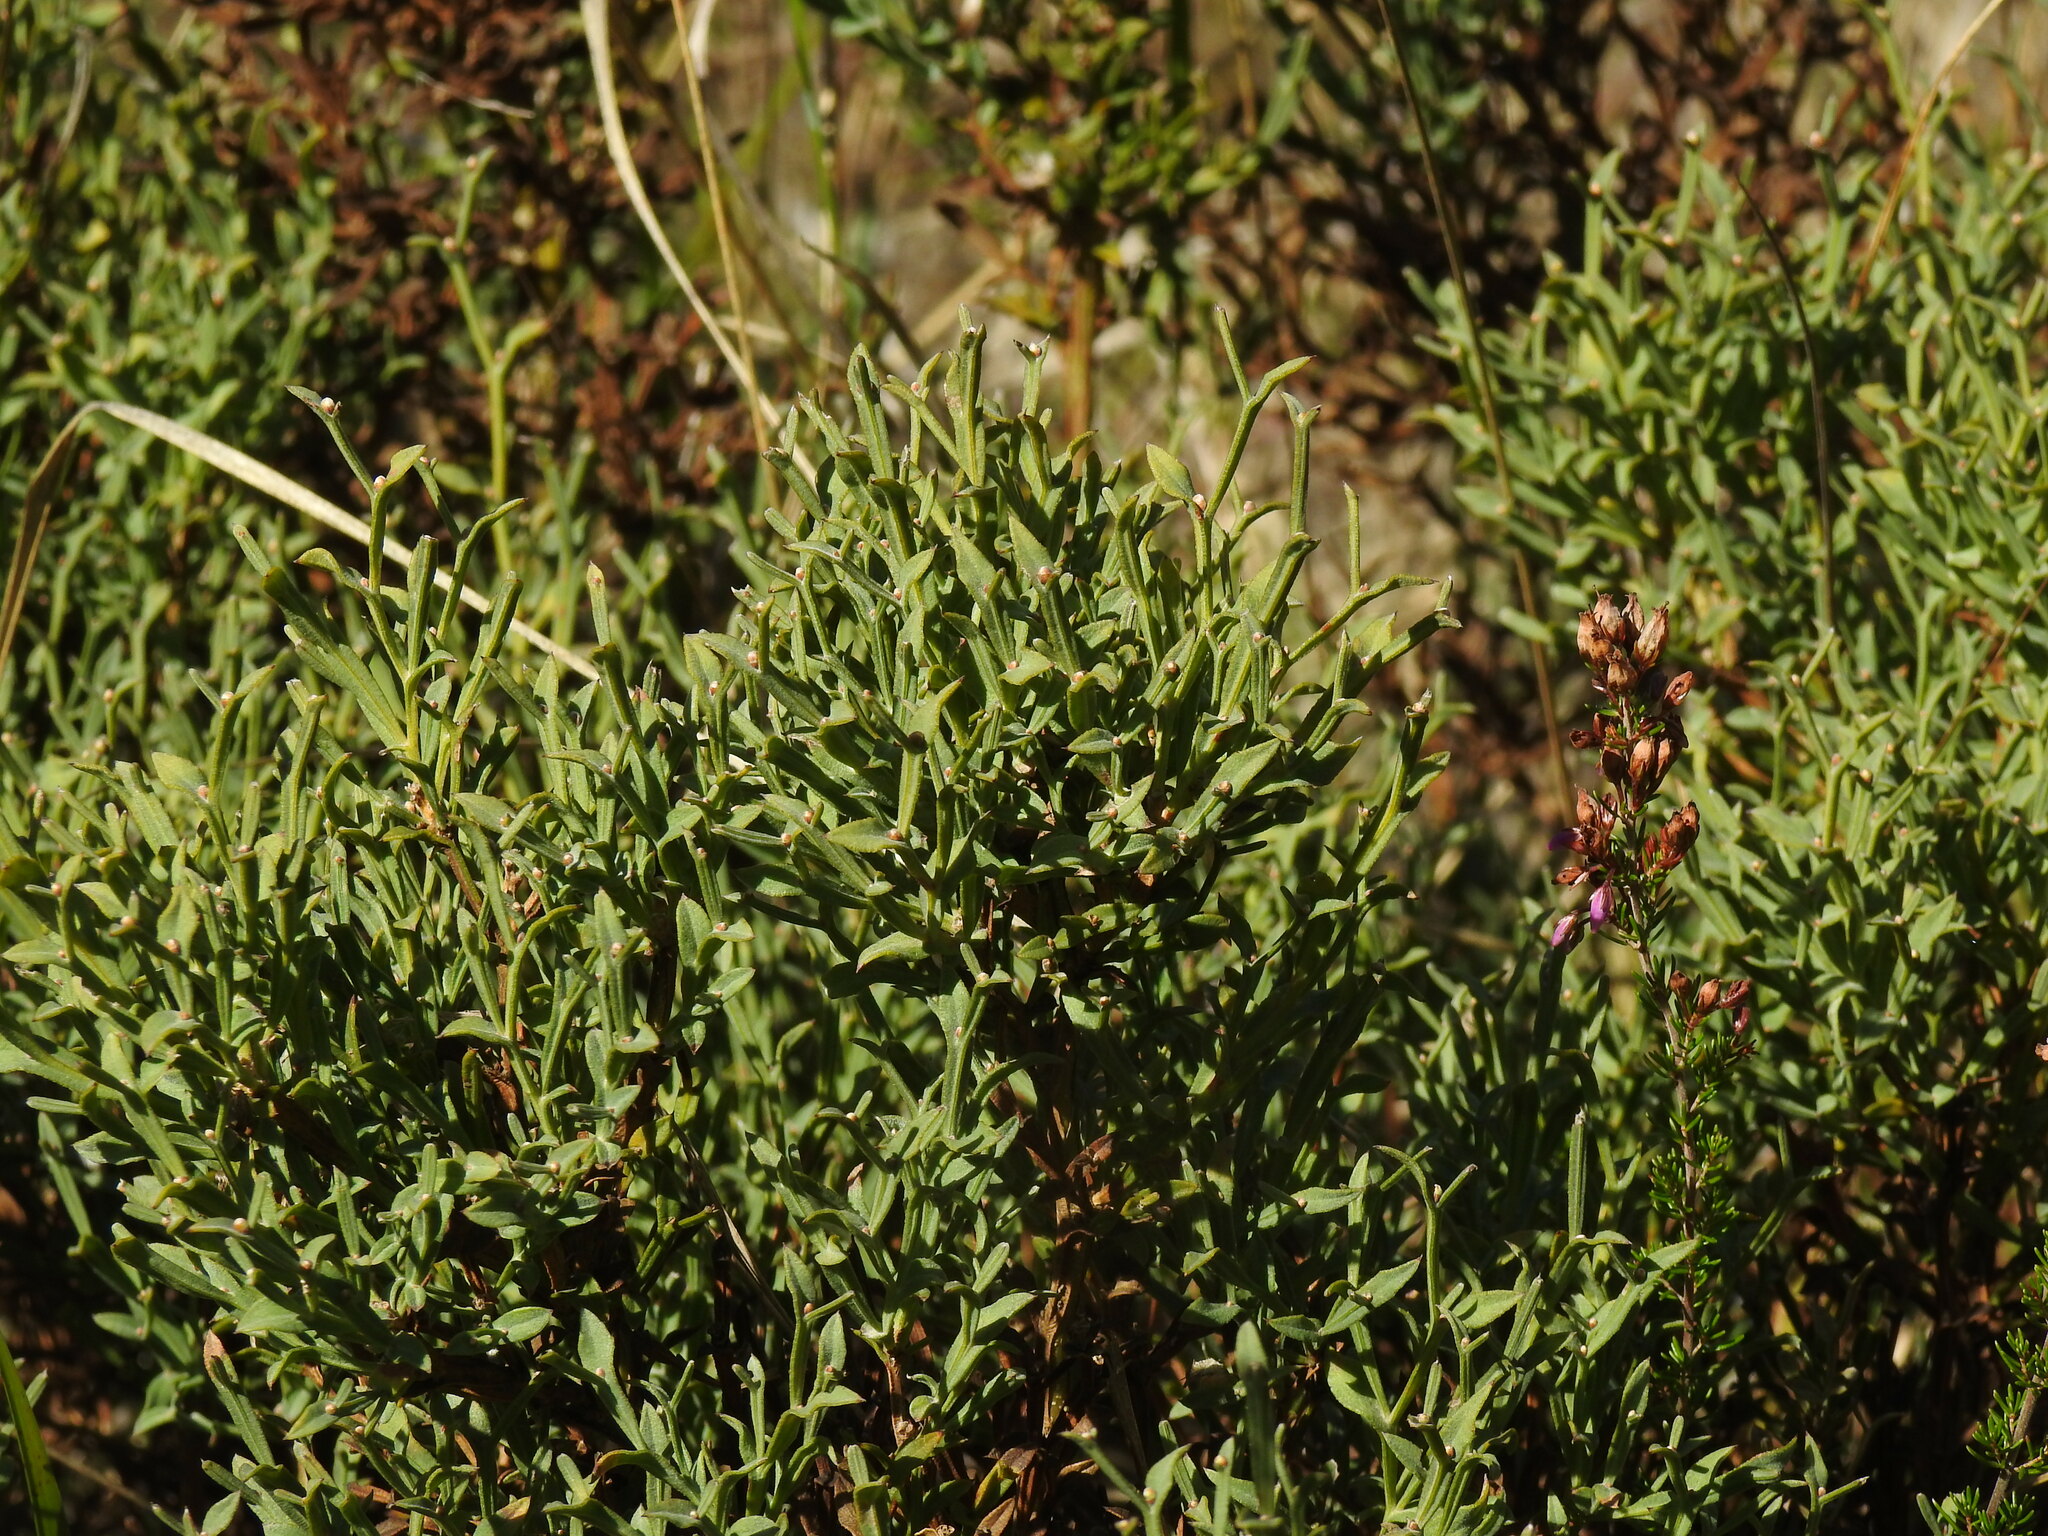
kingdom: Plantae
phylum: Tracheophyta
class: Magnoliopsida
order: Fabales
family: Fabaceae
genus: Genista
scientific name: Genista tridentata
